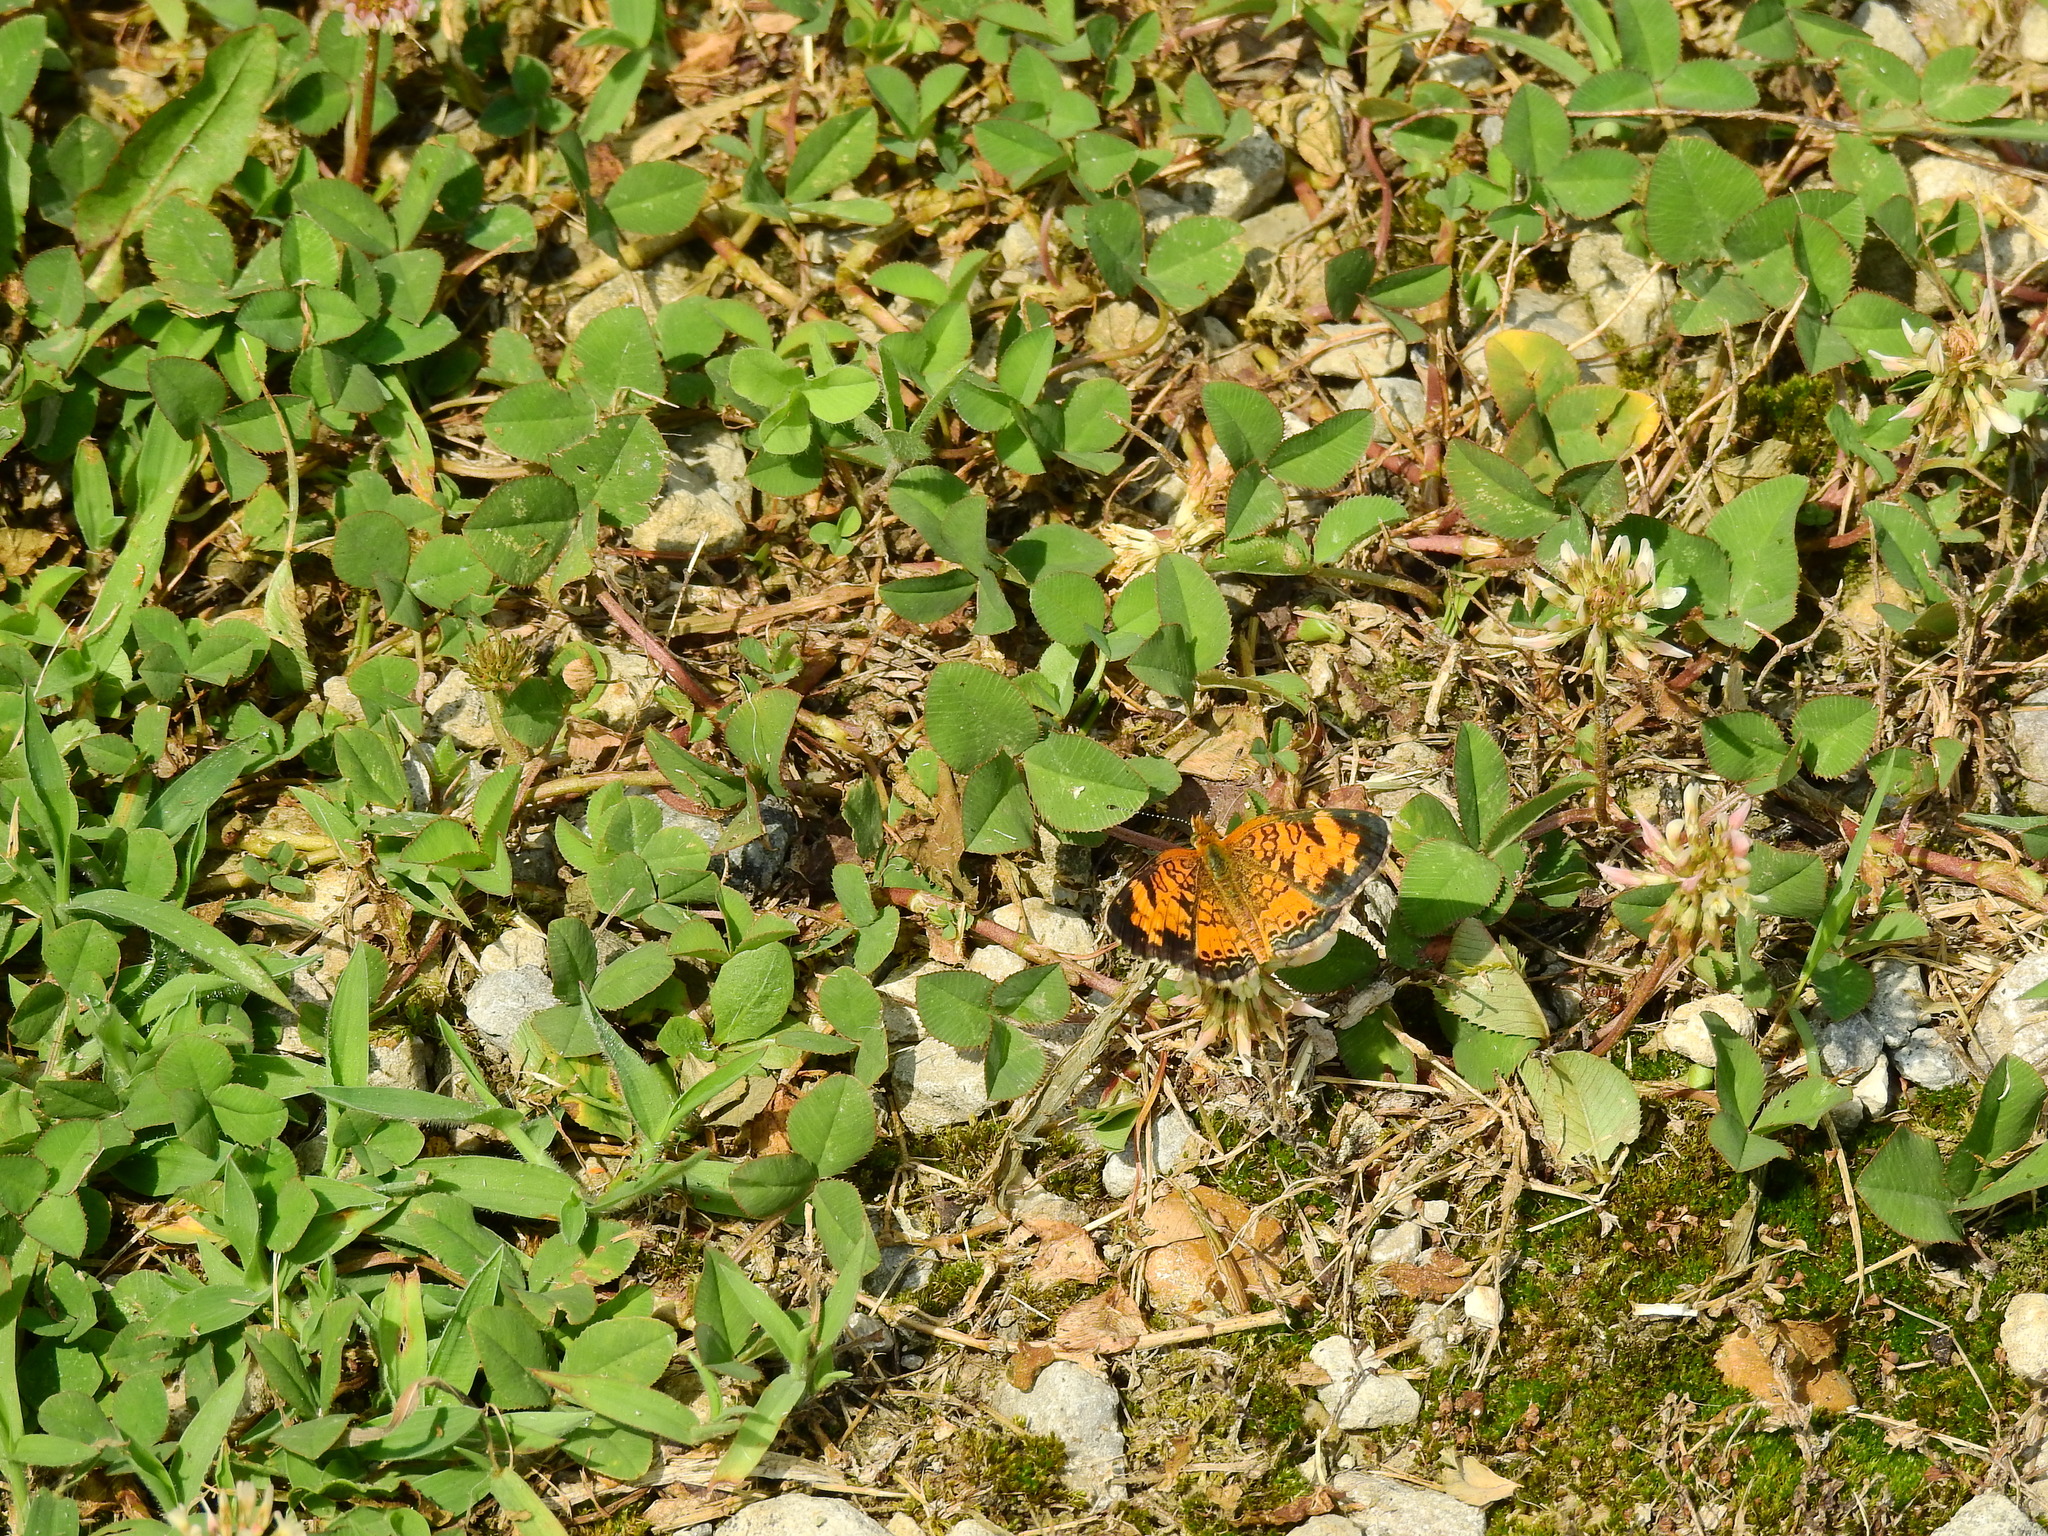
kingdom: Animalia
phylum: Arthropoda
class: Insecta
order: Lepidoptera
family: Nymphalidae
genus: Phyciodes
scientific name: Phyciodes tharos
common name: Pearl crescent
